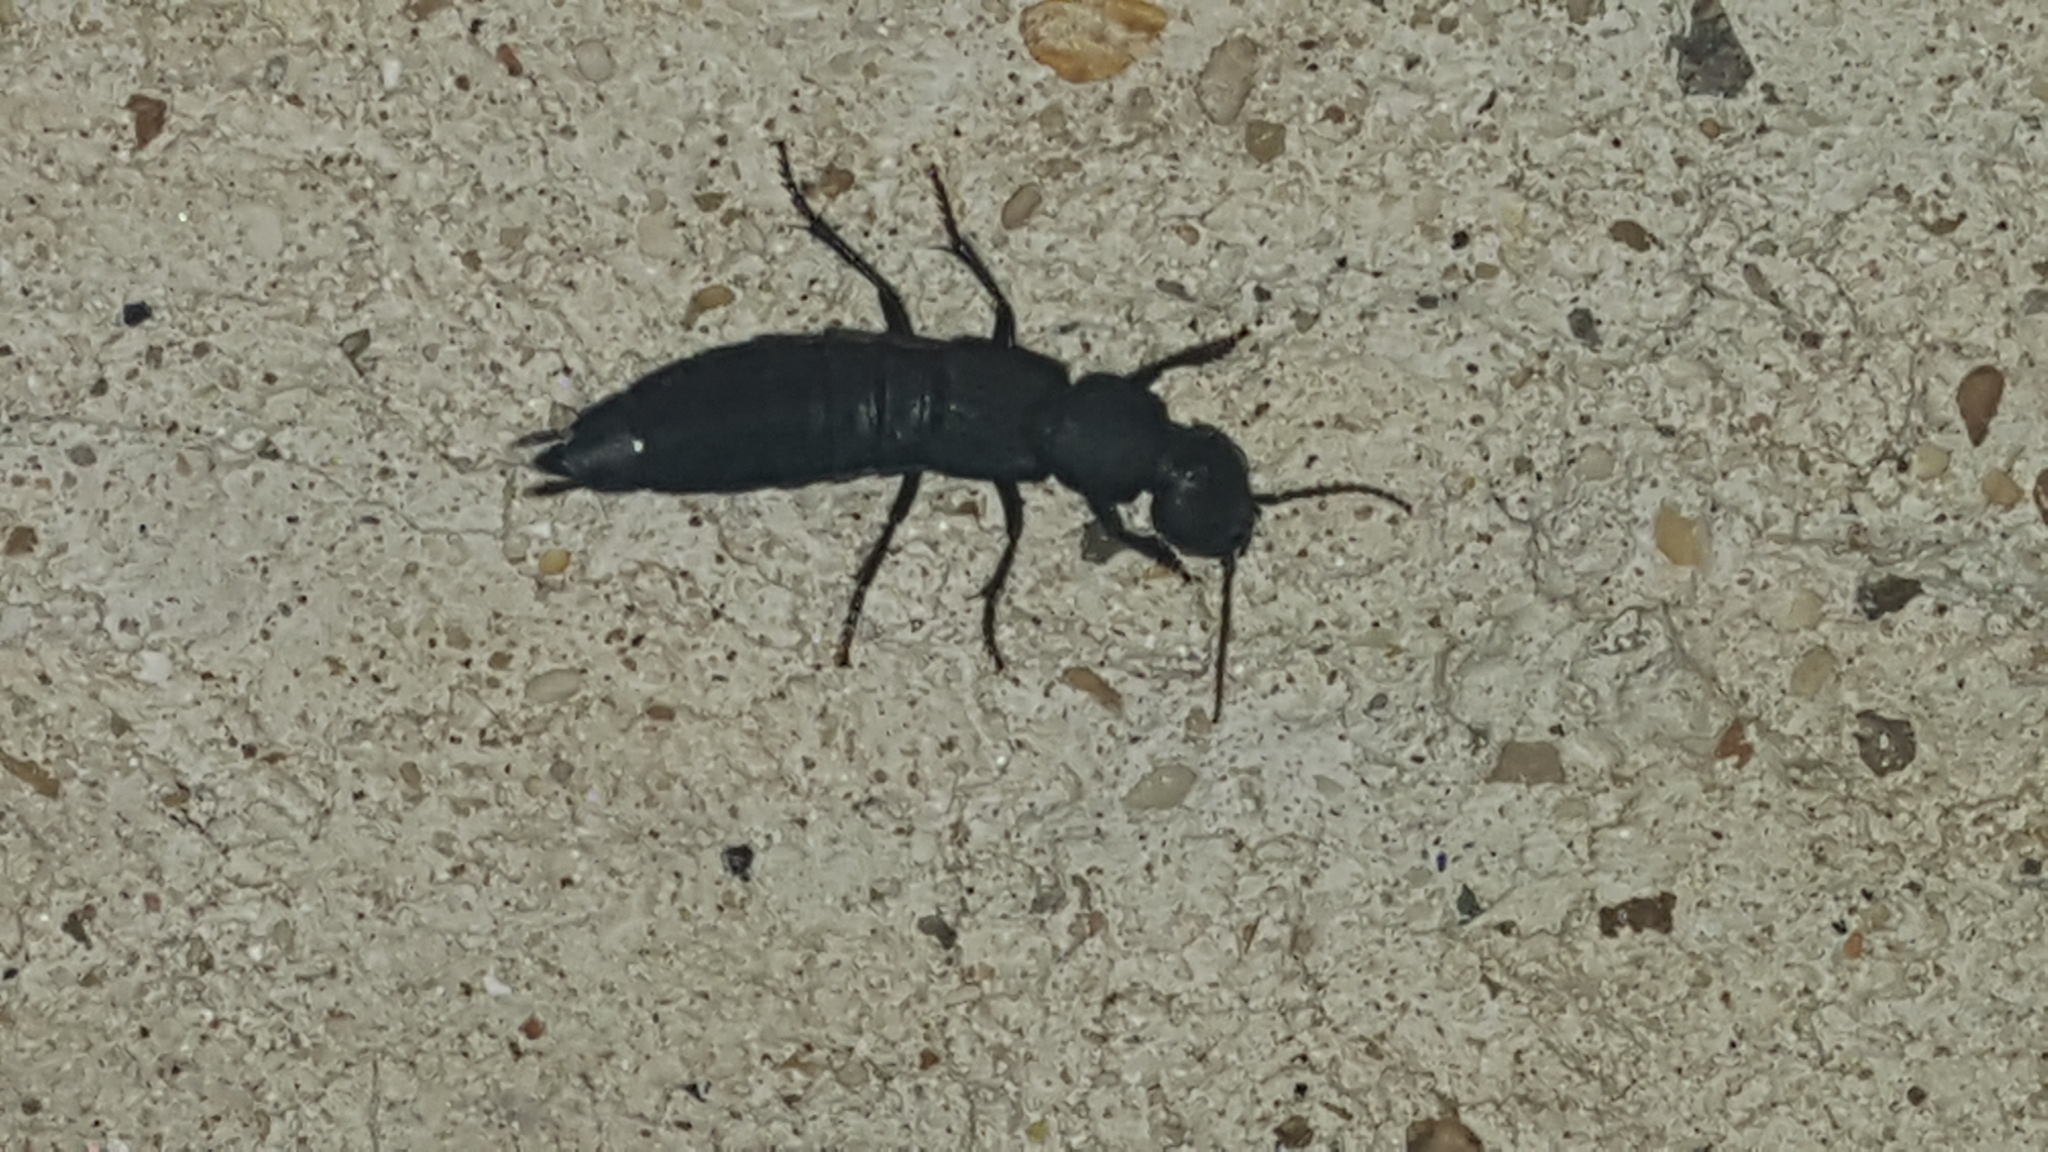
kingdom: Animalia
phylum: Arthropoda
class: Insecta
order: Coleoptera
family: Staphylinidae
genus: Ocypus
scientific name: Ocypus olens
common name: Devil's coach-horse
